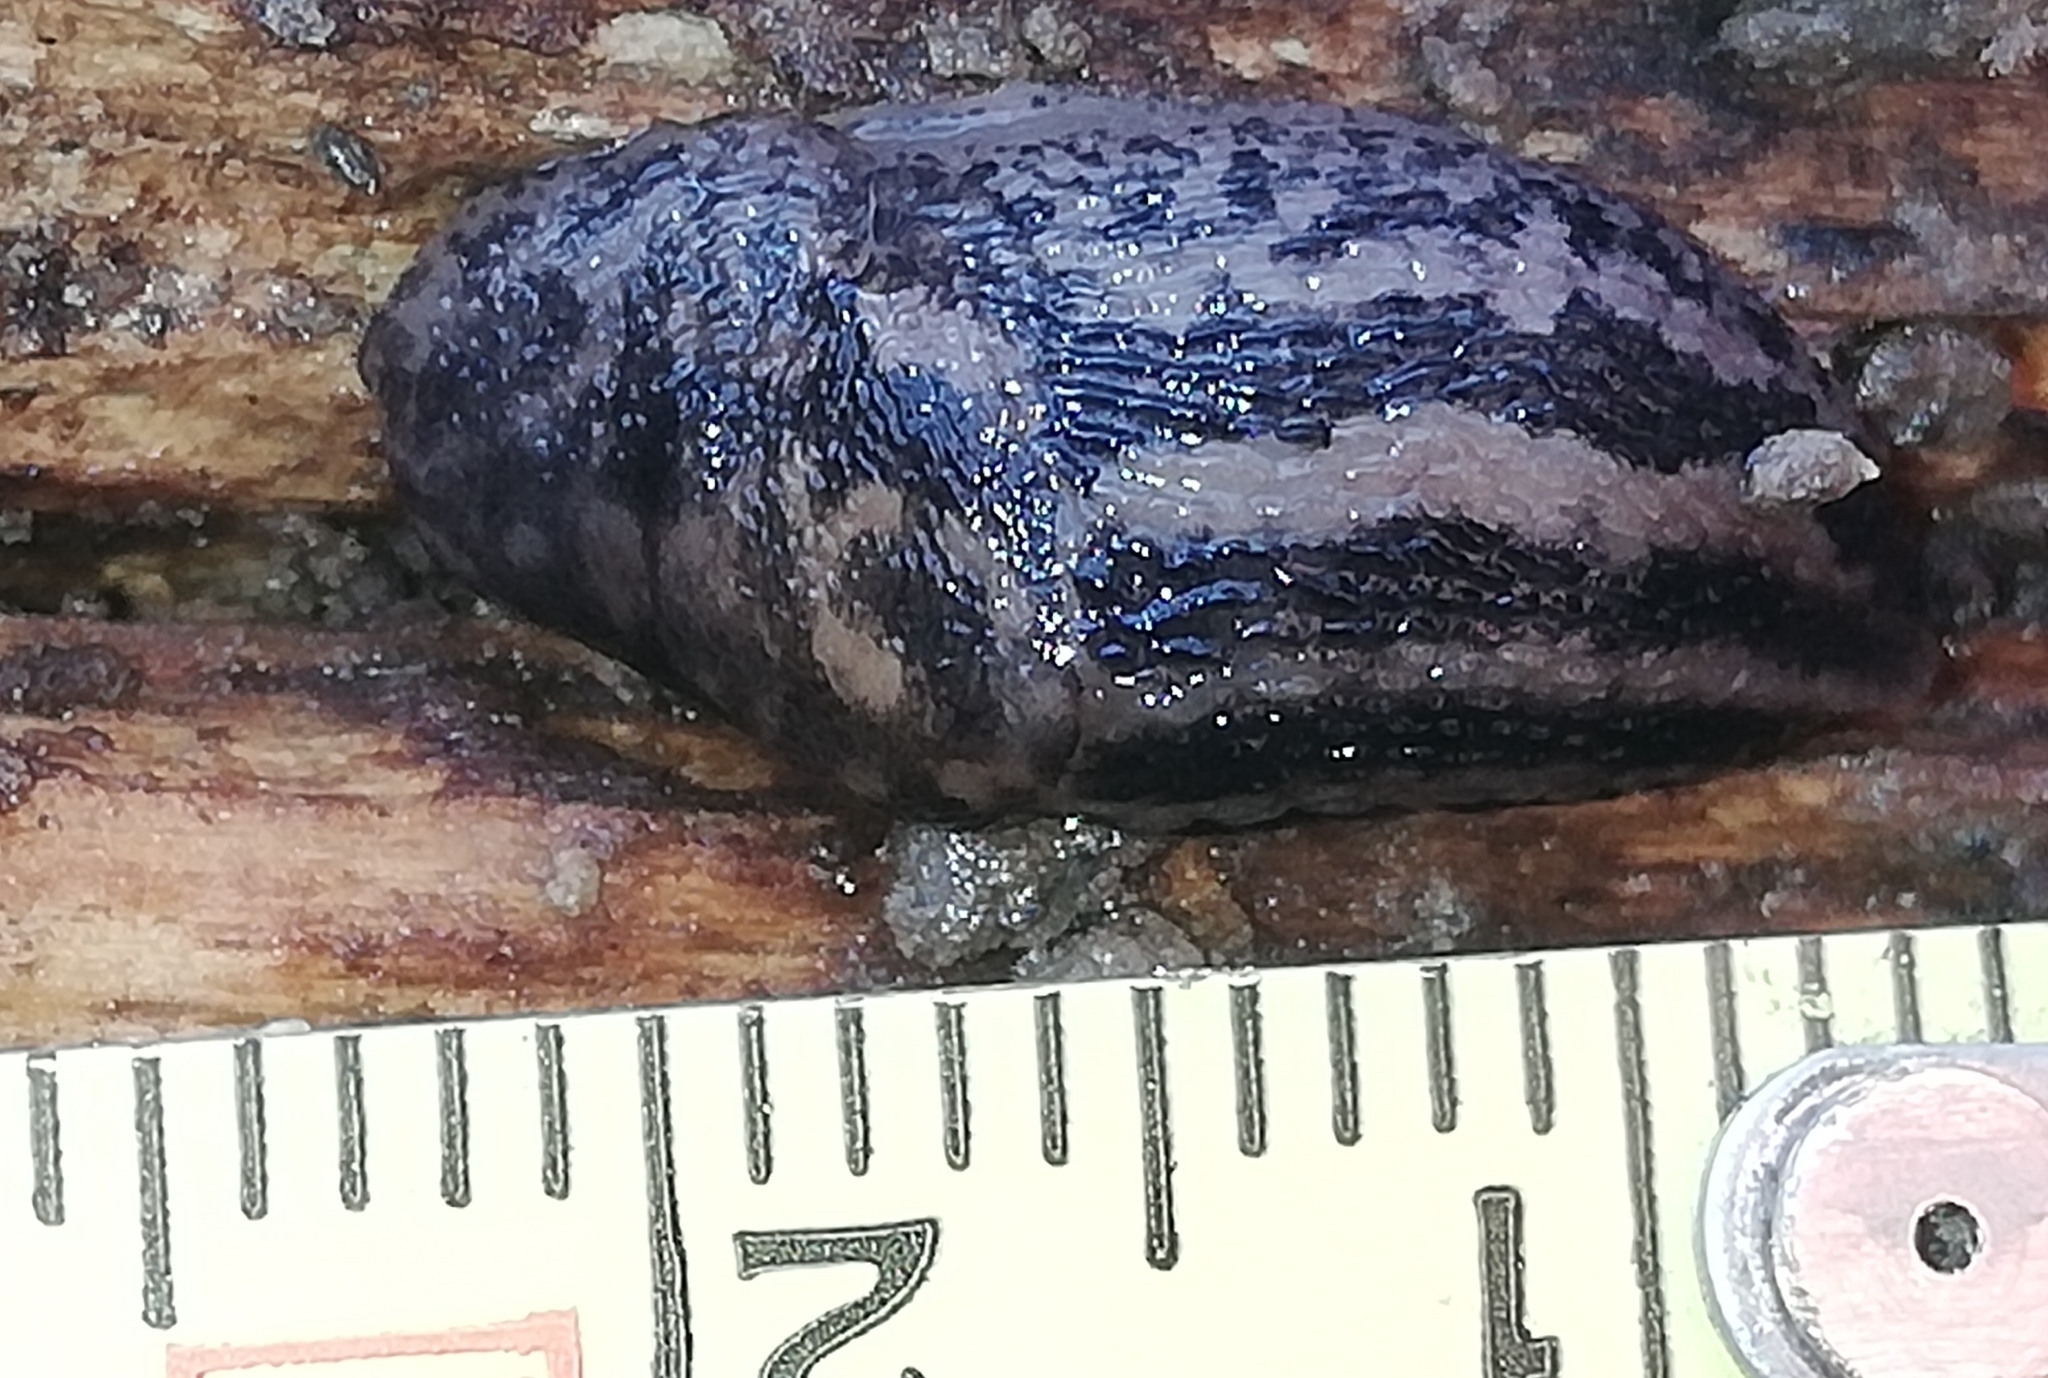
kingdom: Animalia
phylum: Mollusca
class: Gastropoda
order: Stylommatophora
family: Limacidae
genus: Limax
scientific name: Limax maximus
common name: Great grey slug
